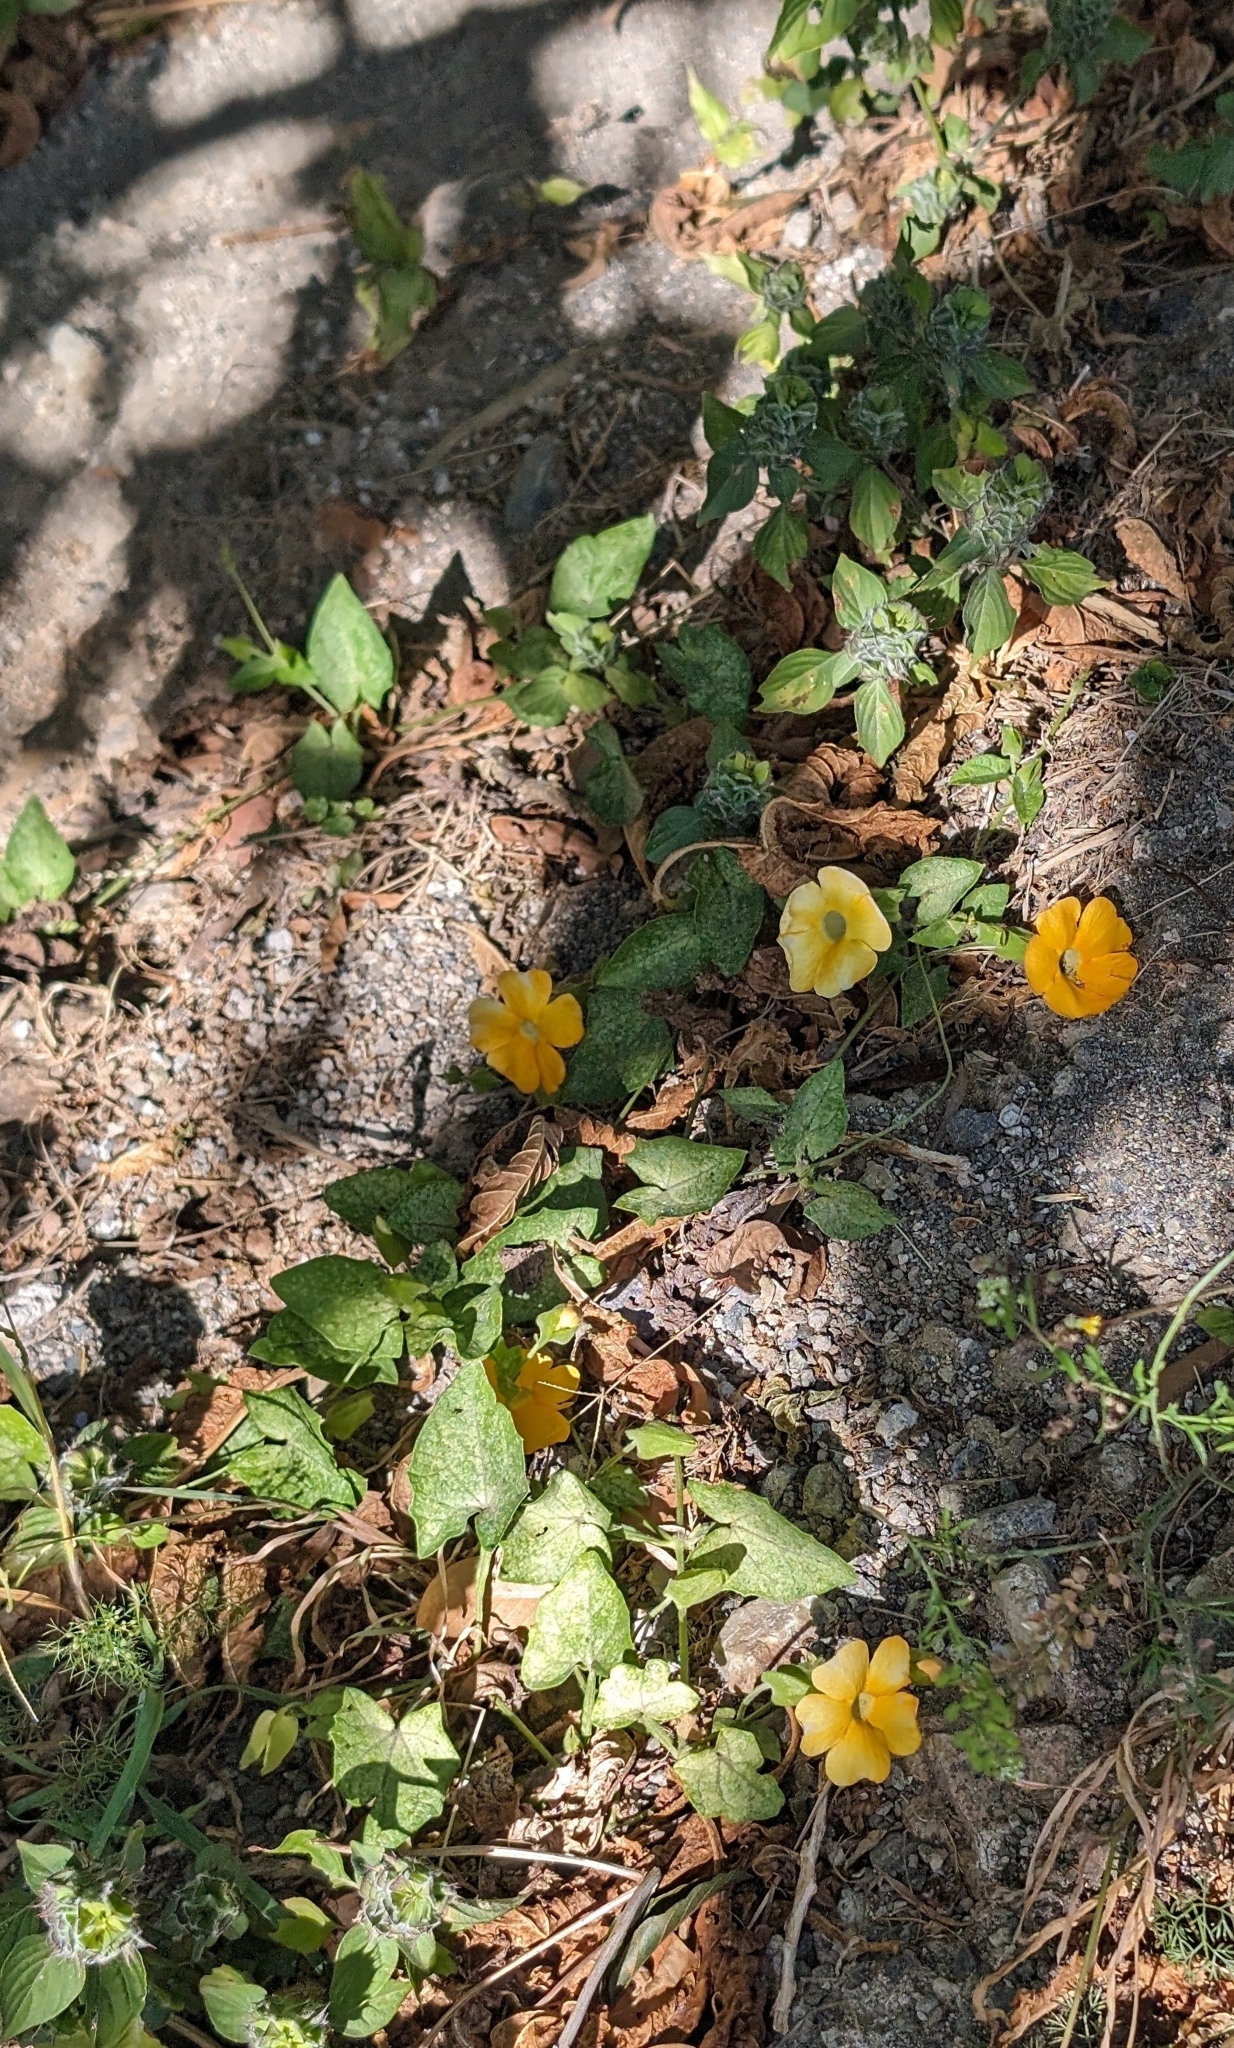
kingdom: Plantae
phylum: Tracheophyta
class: Magnoliopsida
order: Lamiales
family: Acanthaceae
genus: Thunbergia
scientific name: Thunbergia alata
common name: Blackeyed susan vine
